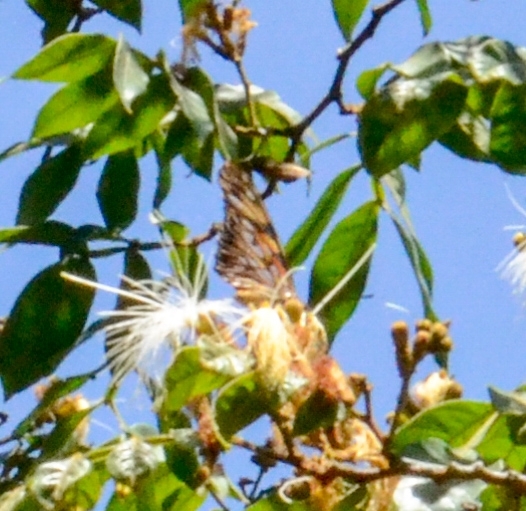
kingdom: Animalia
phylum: Arthropoda
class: Insecta
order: Lepidoptera
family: Nymphalidae
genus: Dione
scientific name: Dione juno
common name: Juno silverspot
